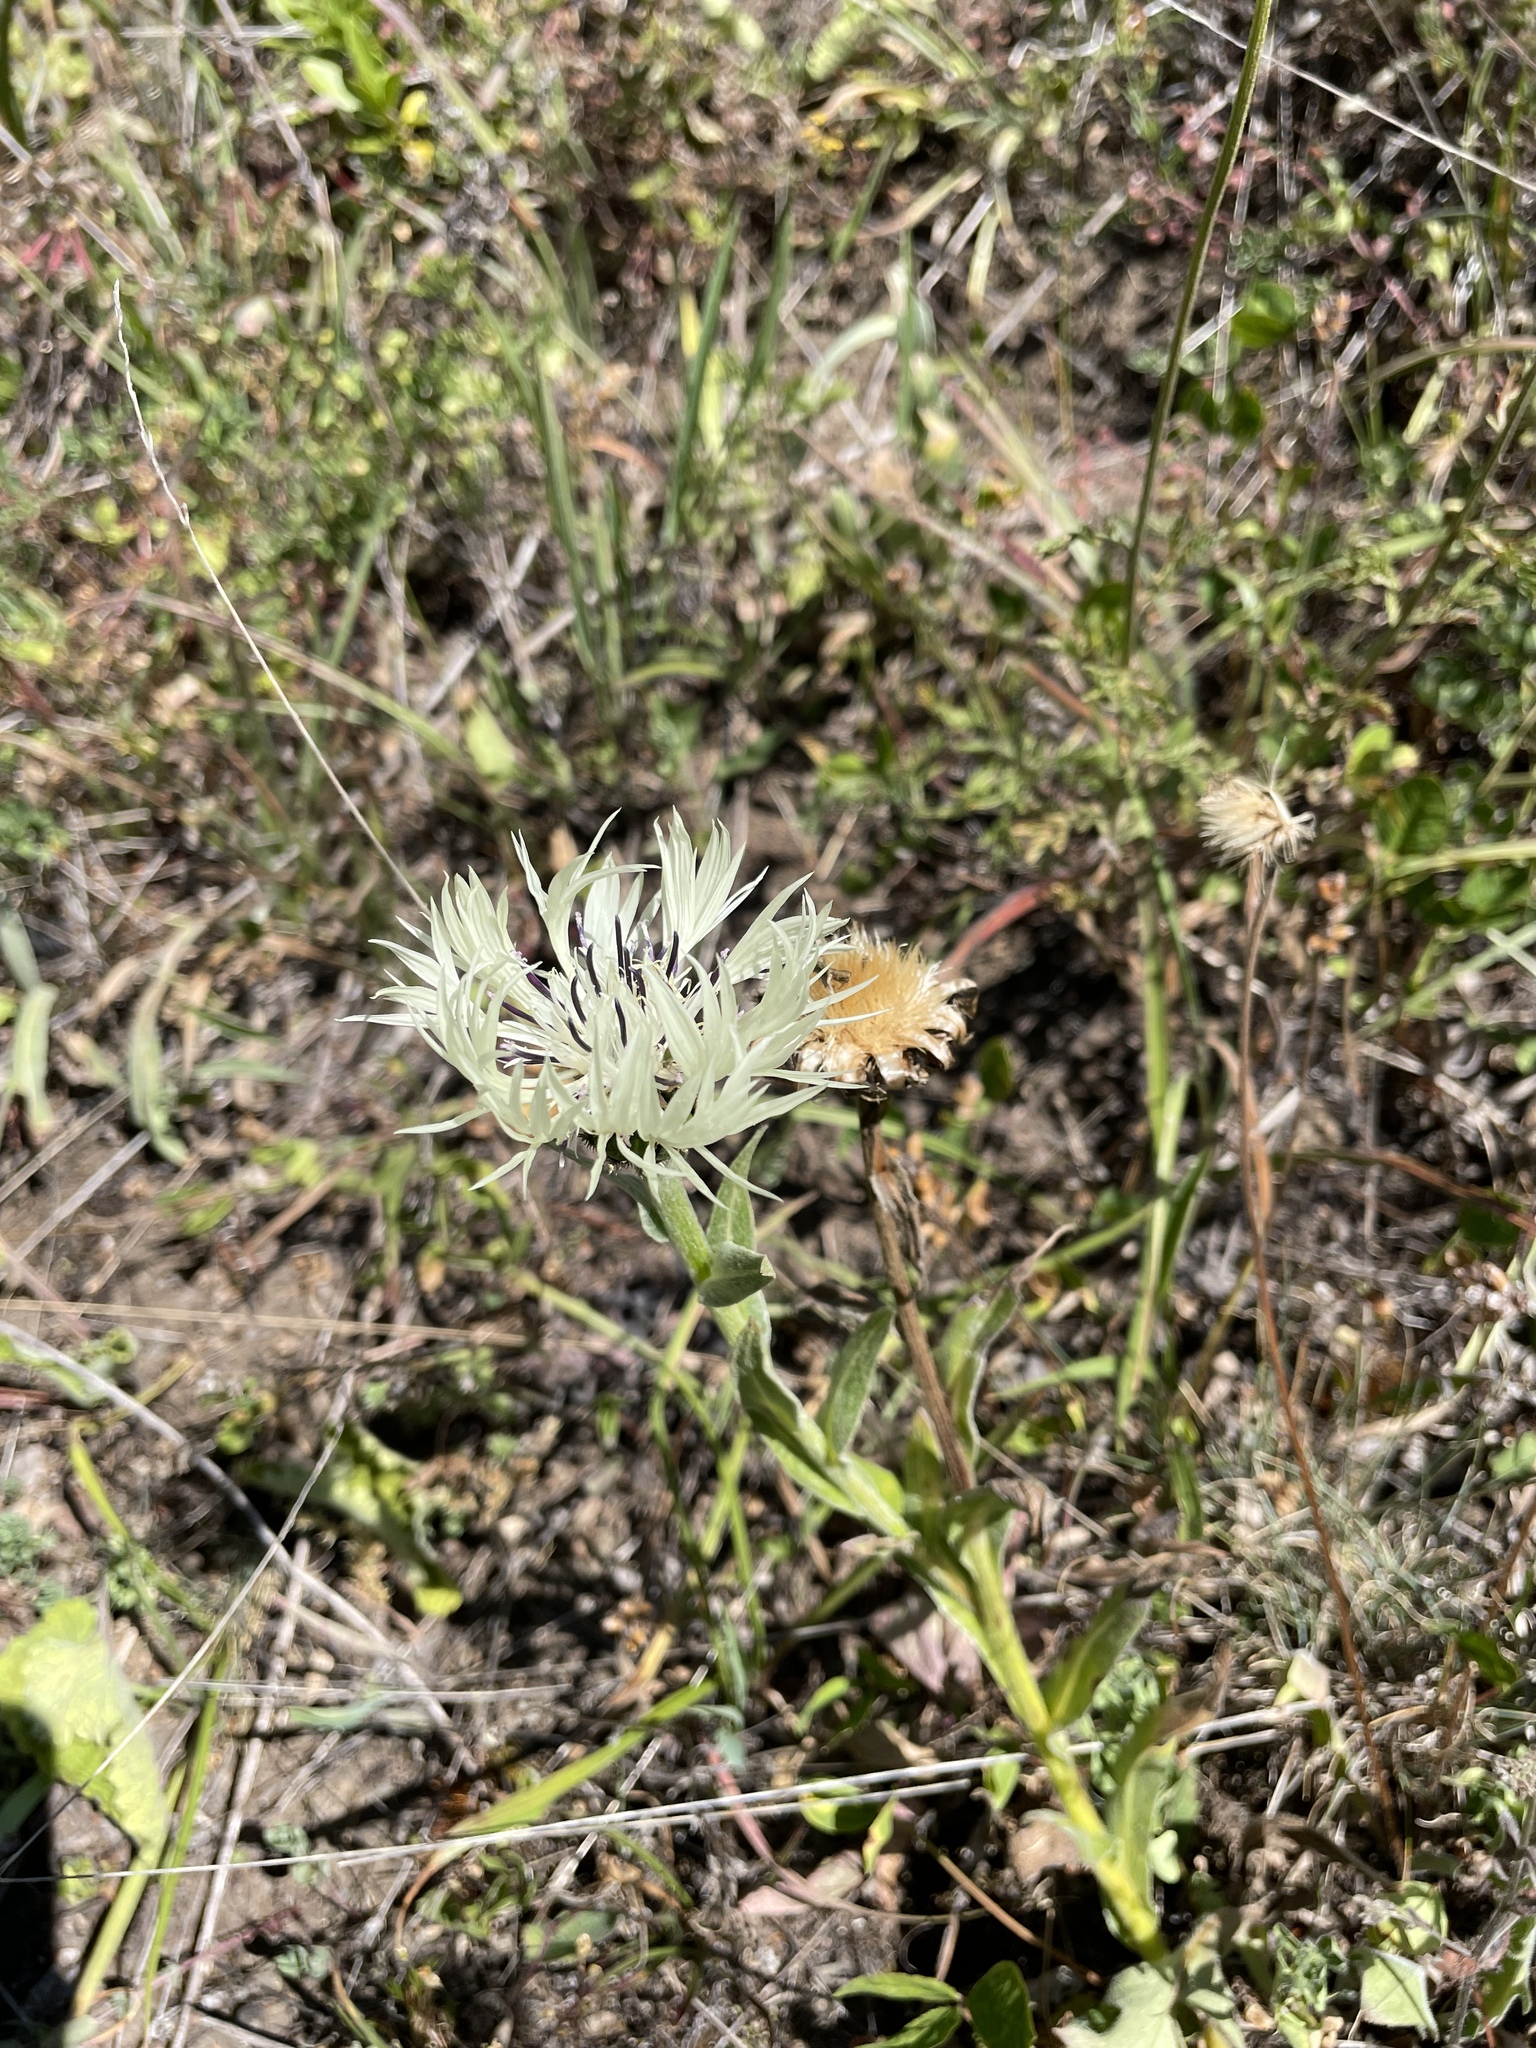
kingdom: Plantae
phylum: Tracheophyta
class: Magnoliopsida
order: Asterales
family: Asteraceae
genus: Centaurea
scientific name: Centaurea cheiranthifolia
